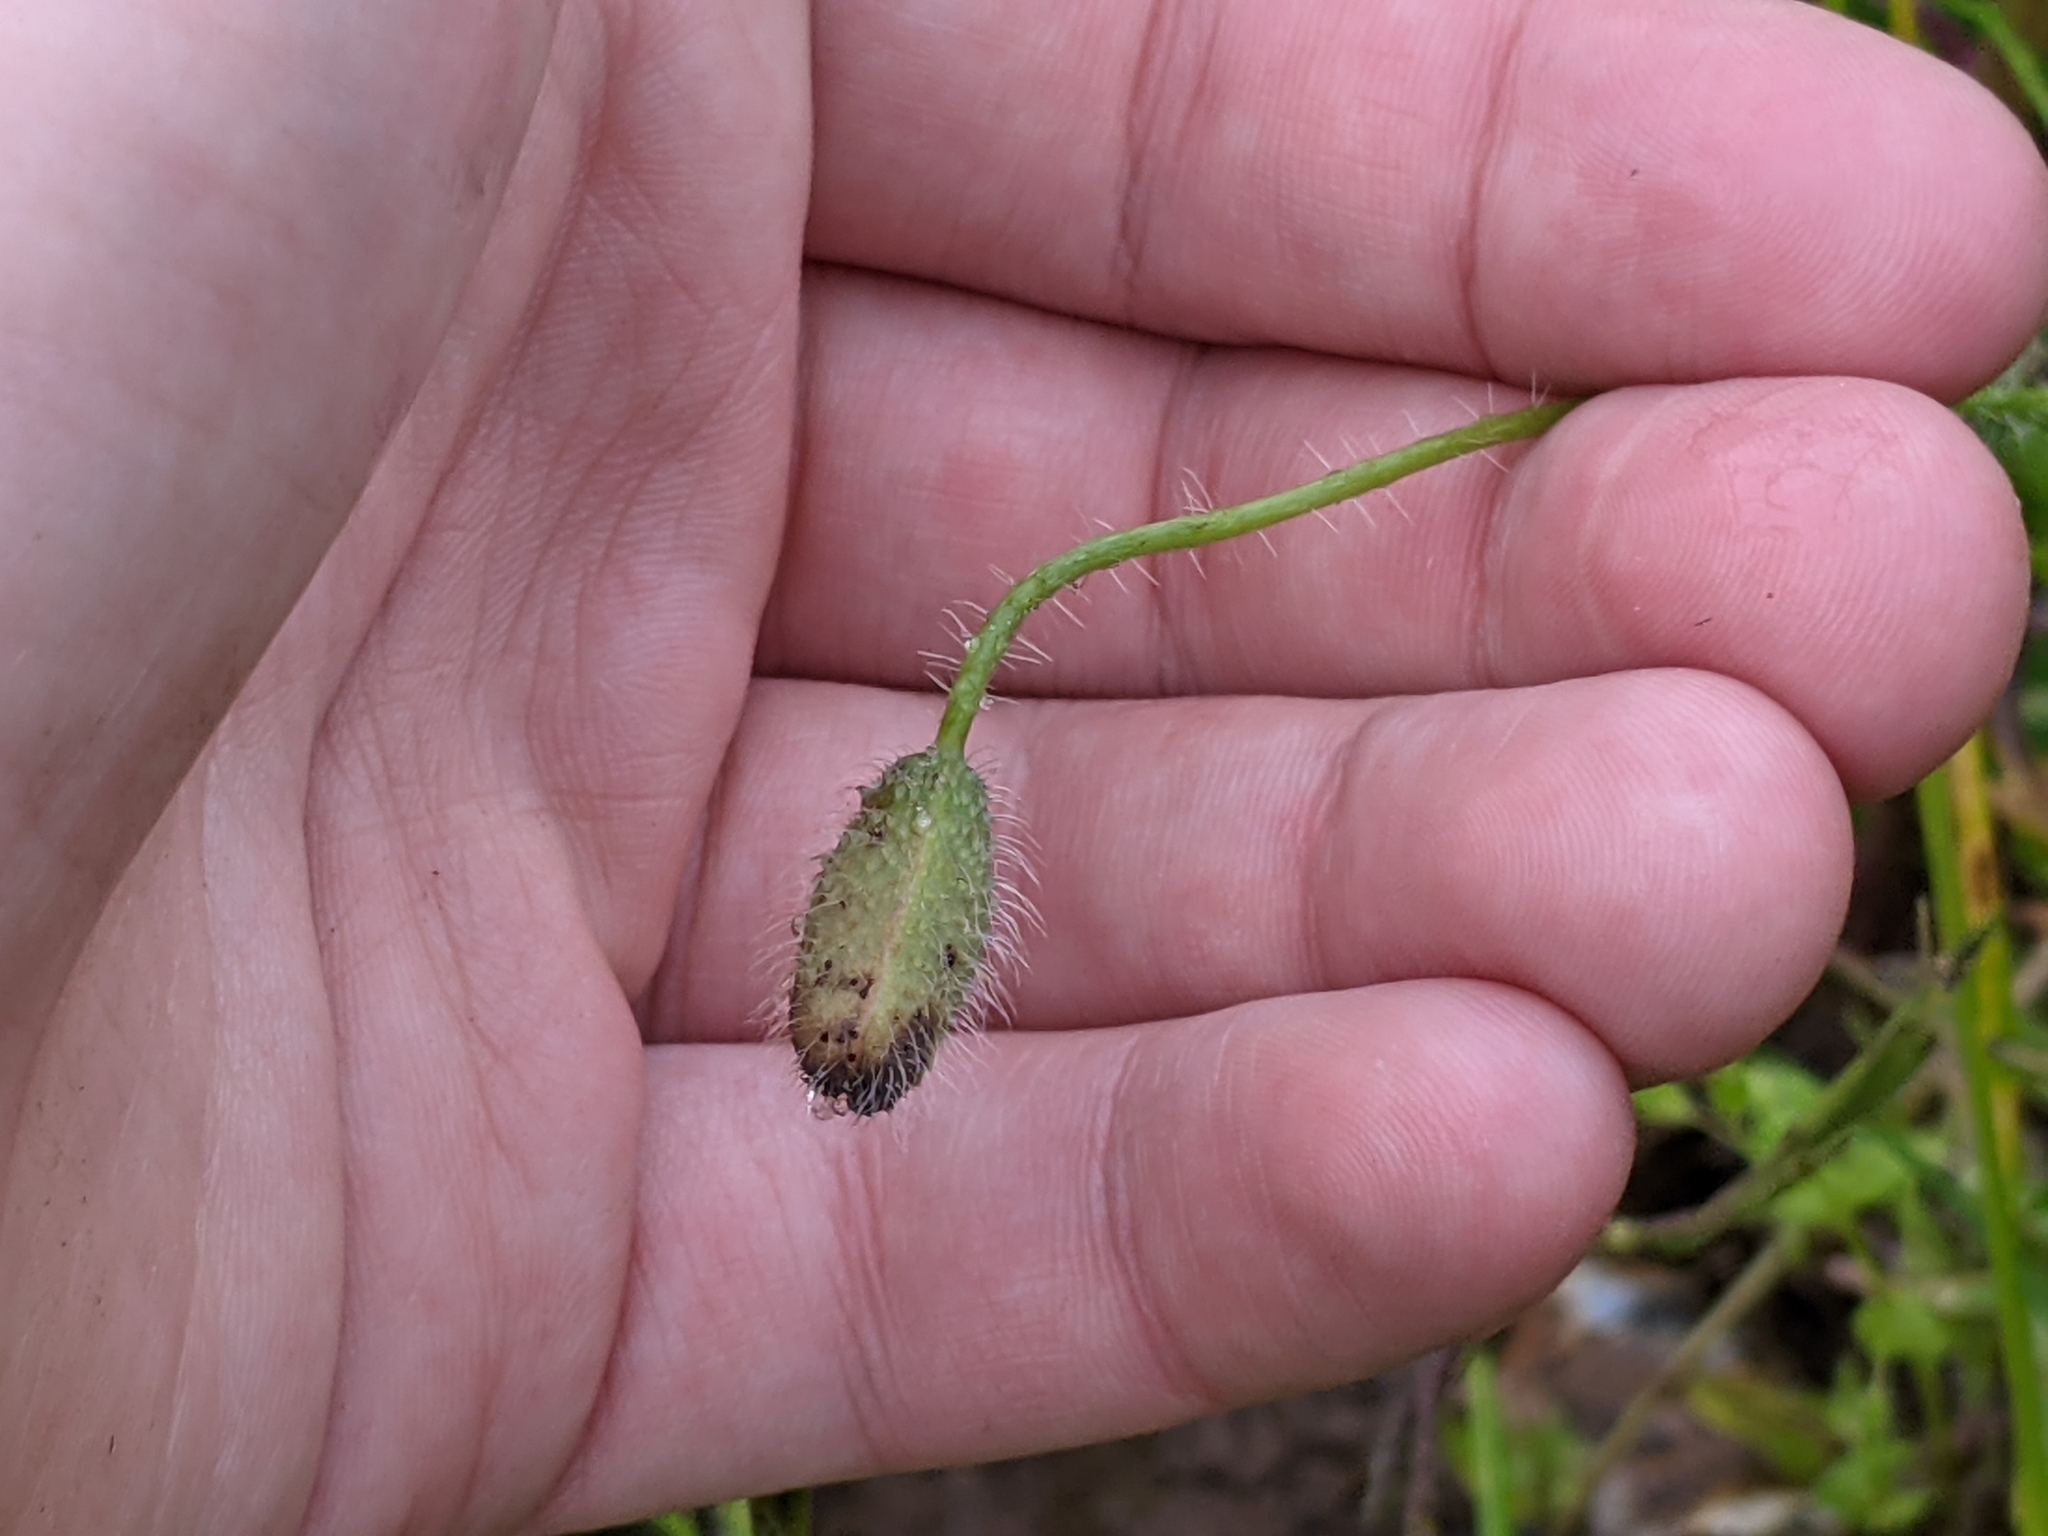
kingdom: Plantae
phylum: Tracheophyta
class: Magnoliopsida
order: Ranunculales
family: Papaveraceae
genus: Papaver
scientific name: Papaver rhoeas
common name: Corn poppy
